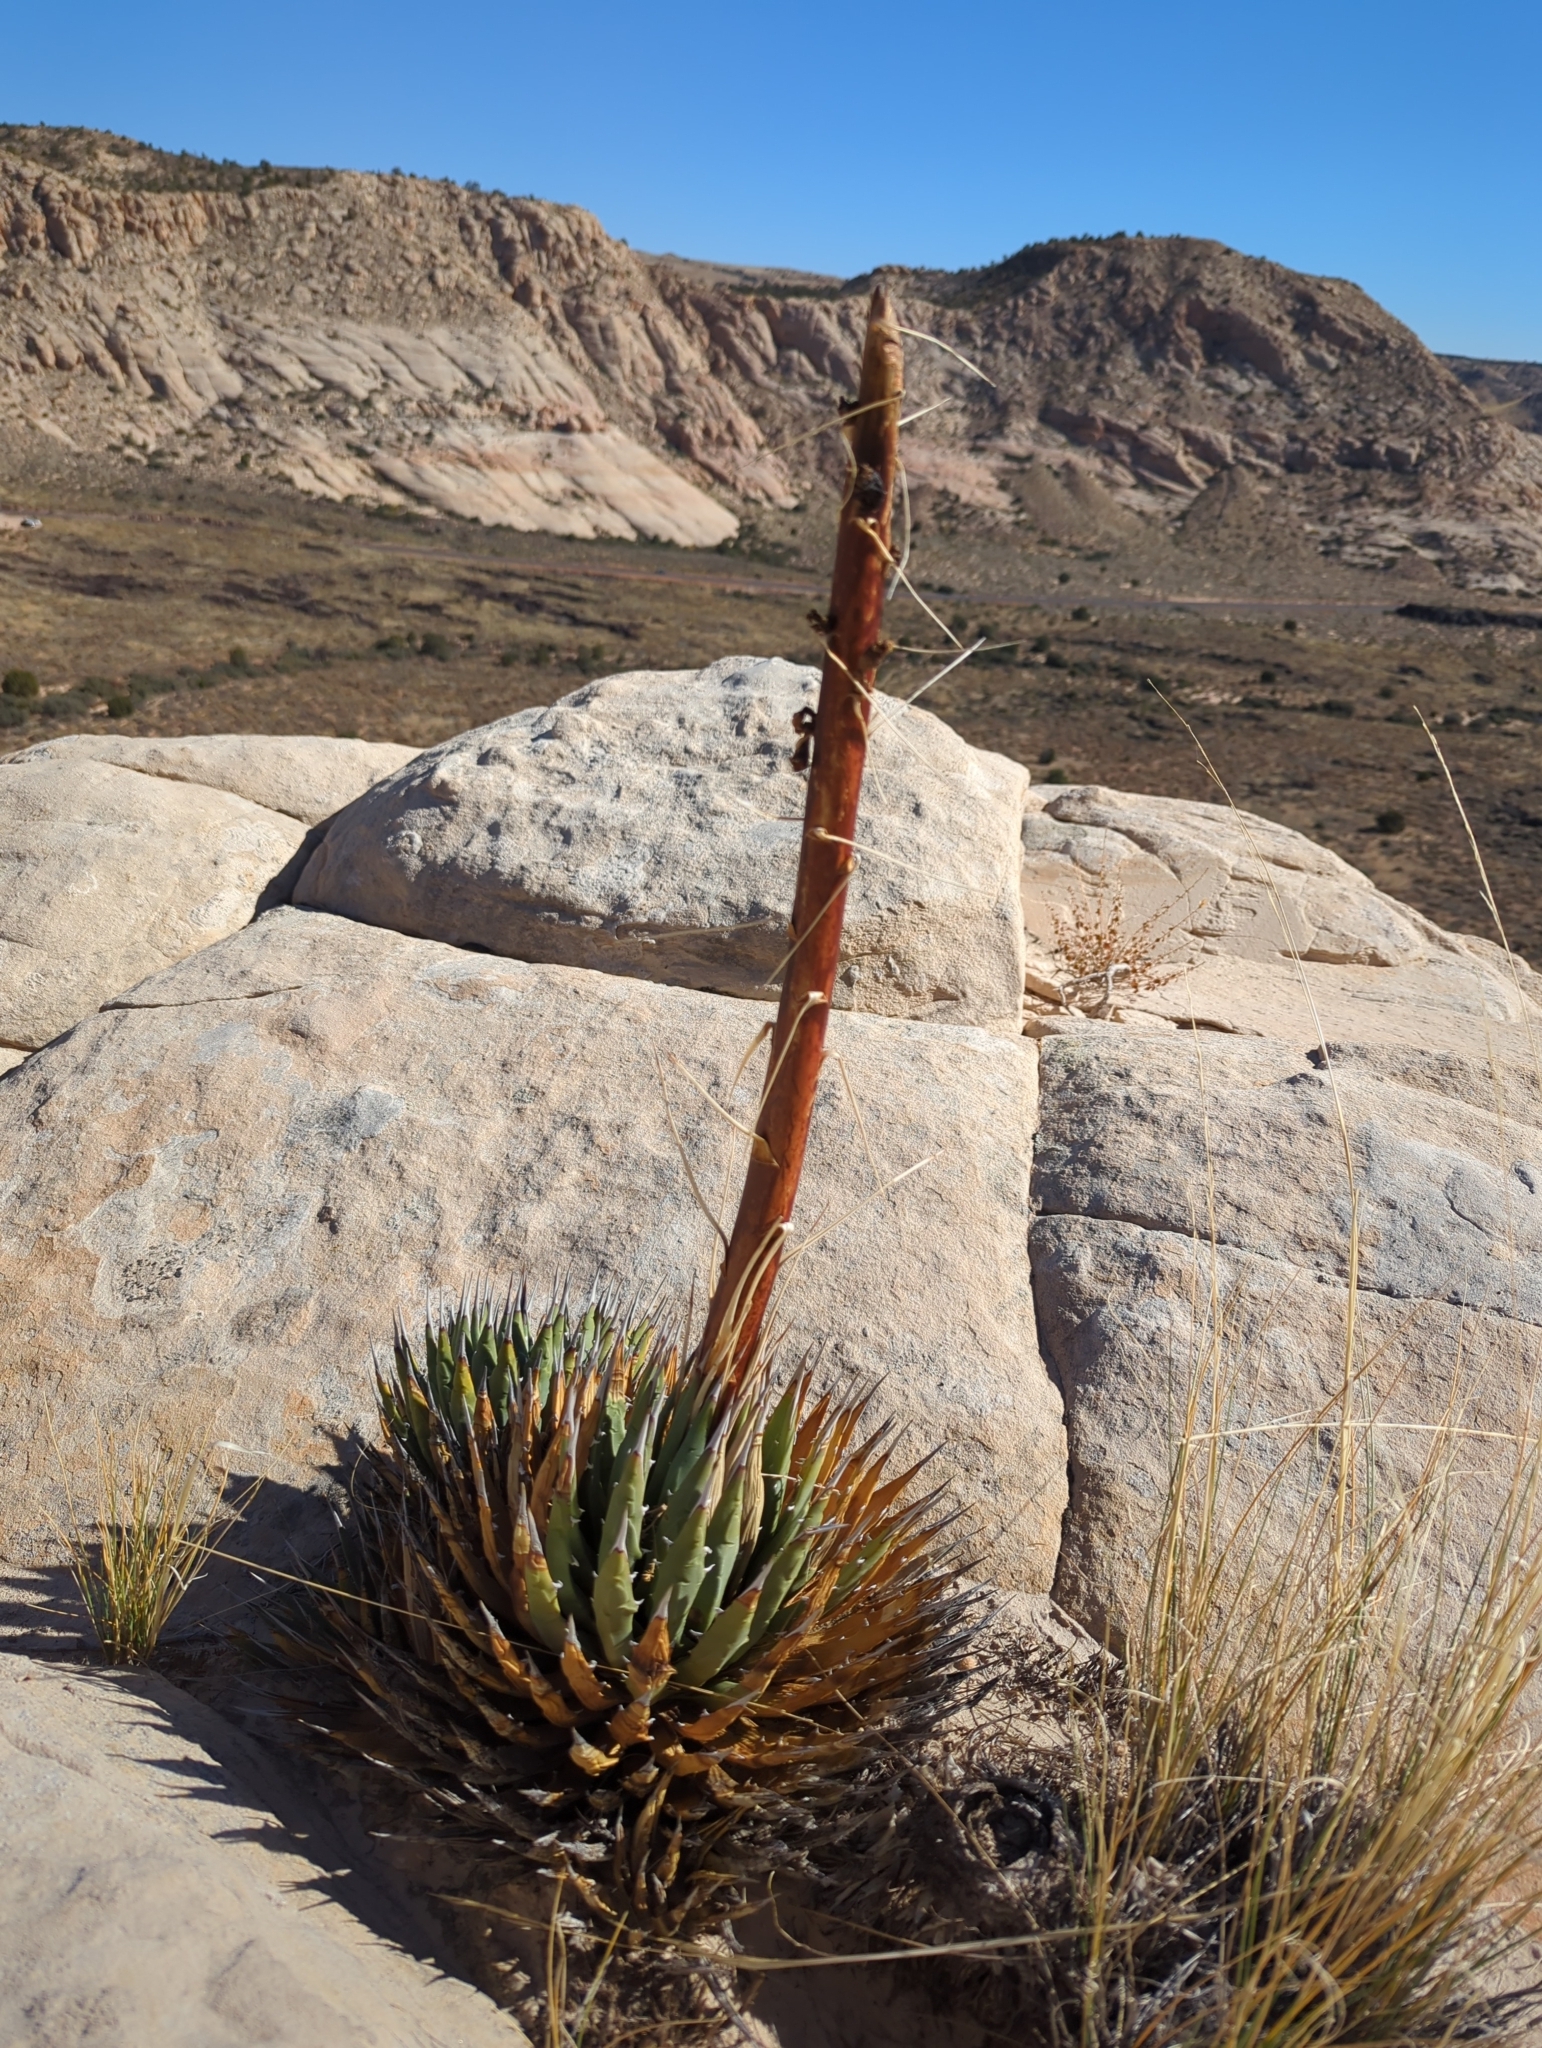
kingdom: Plantae
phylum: Tracheophyta
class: Liliopsida
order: Asparagales
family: Asparagaceae
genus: Agave
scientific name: Agave utahensis
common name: Utah agave
